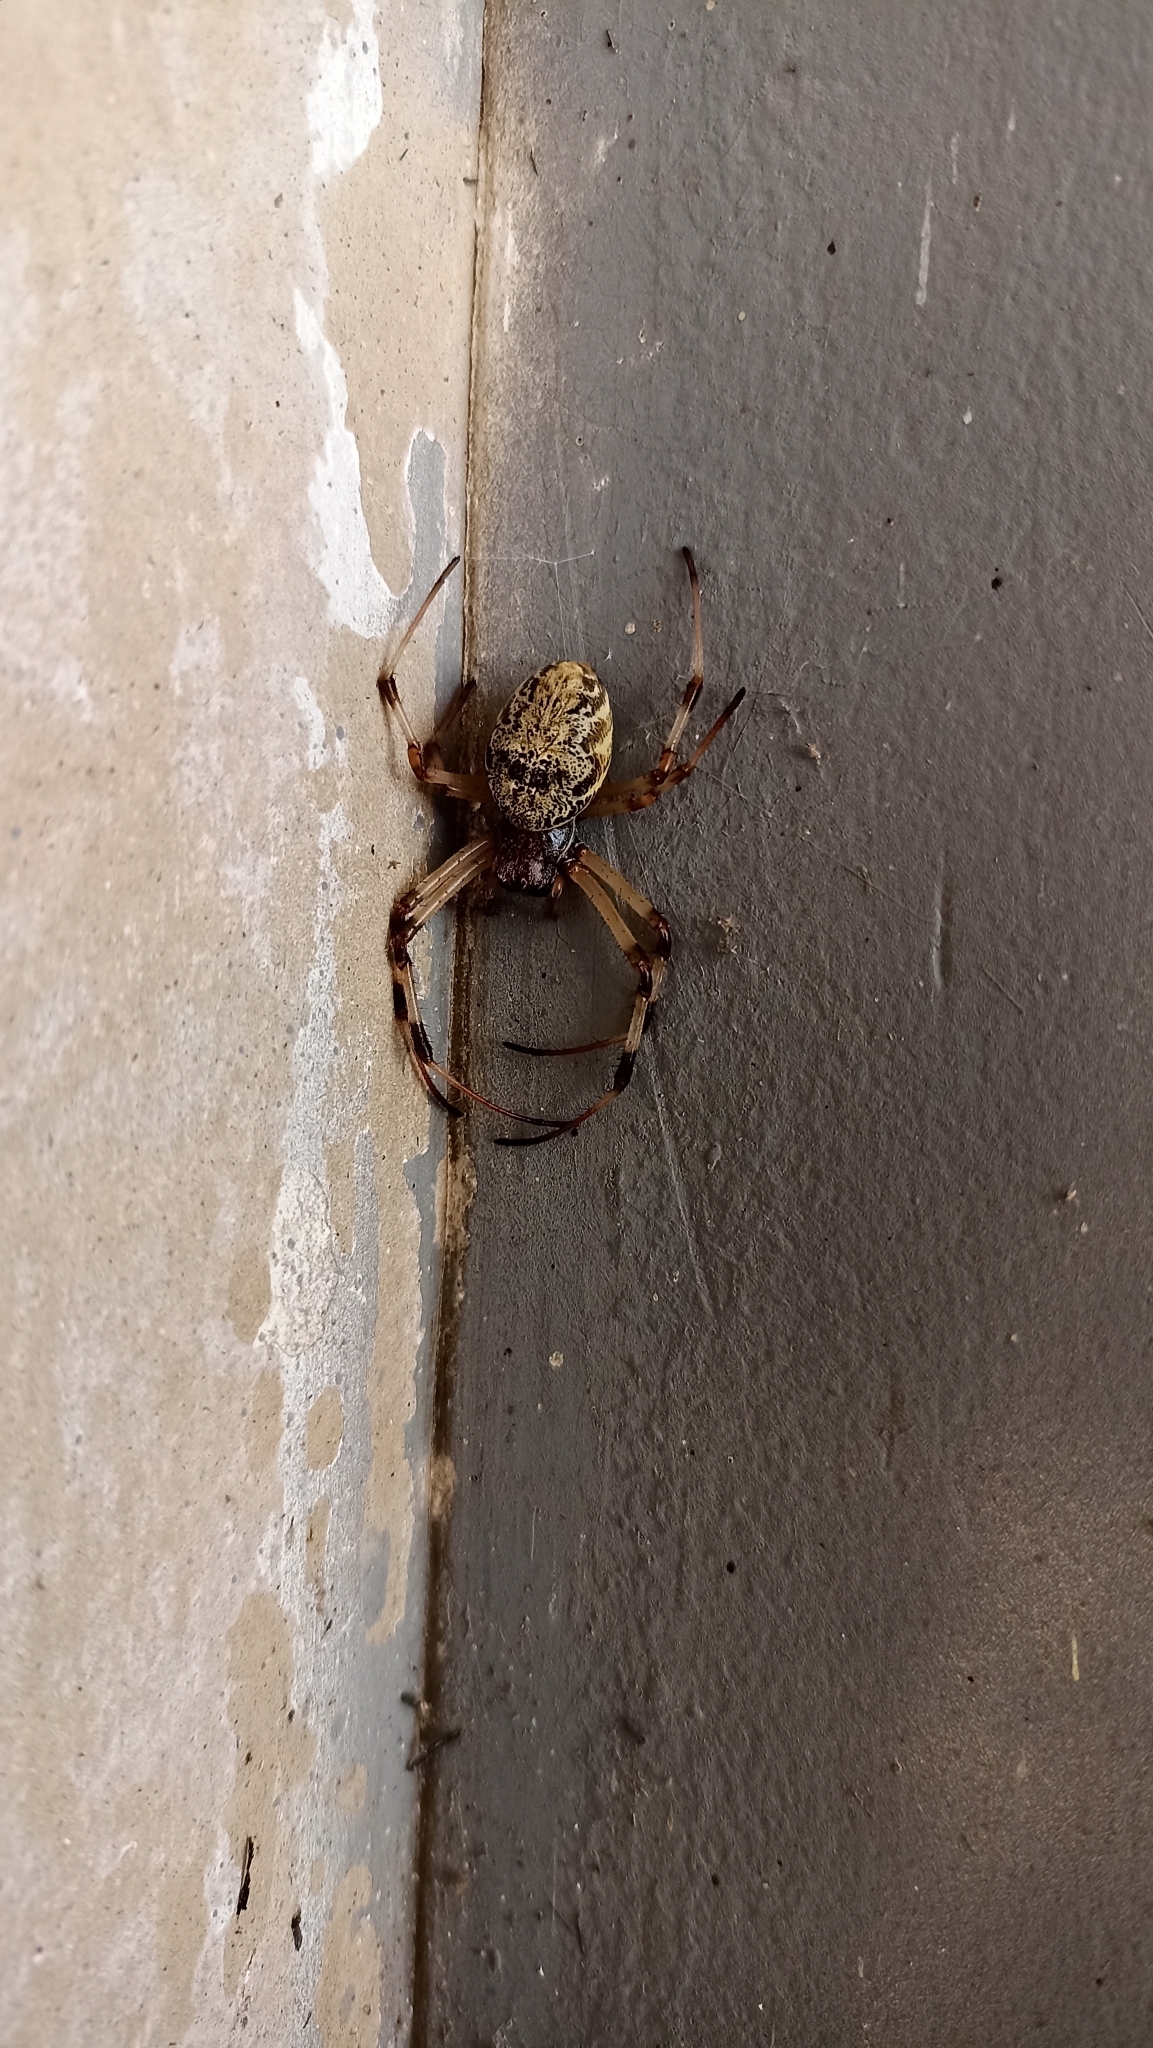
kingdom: Animalia
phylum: Arthropoda
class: Arachnida
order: Araneae
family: Araneidae
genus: Nephilingis
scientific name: Nephilingis cruentata
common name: African hermit spider
